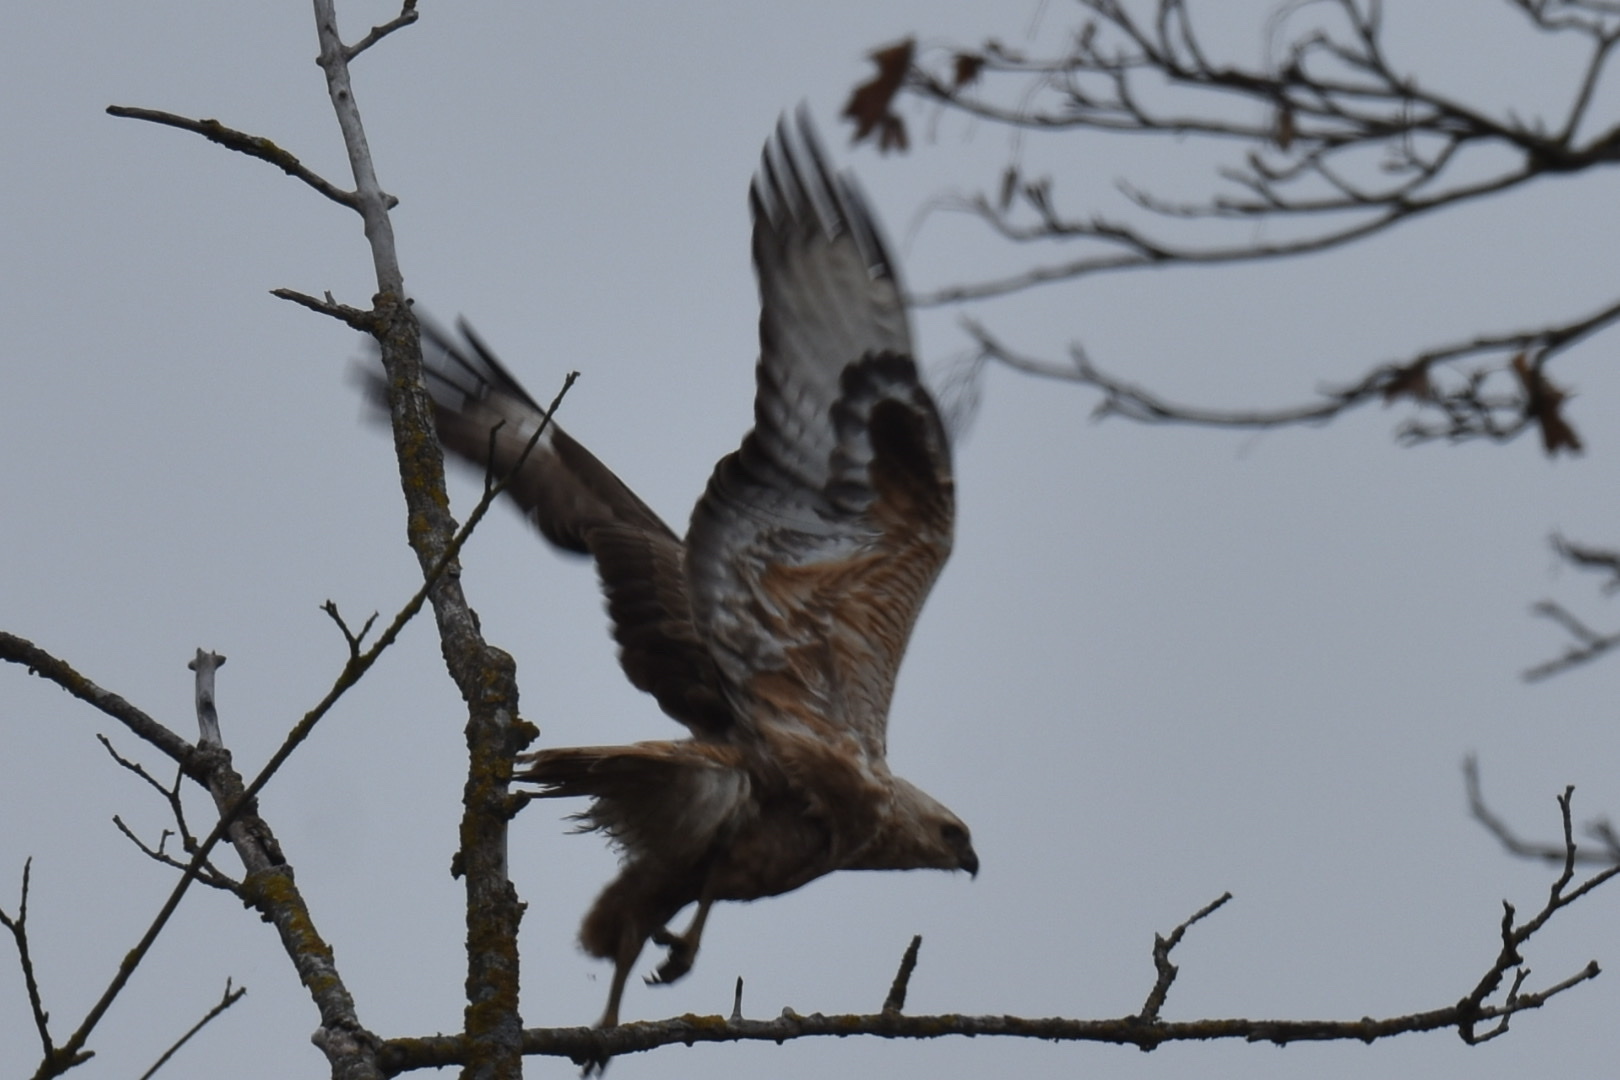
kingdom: Animalia
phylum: Chordata
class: Aves
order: Accipitriformes
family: Accipitridae
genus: Buteo
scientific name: Buteo rufinus
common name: Long-legged buzzard
